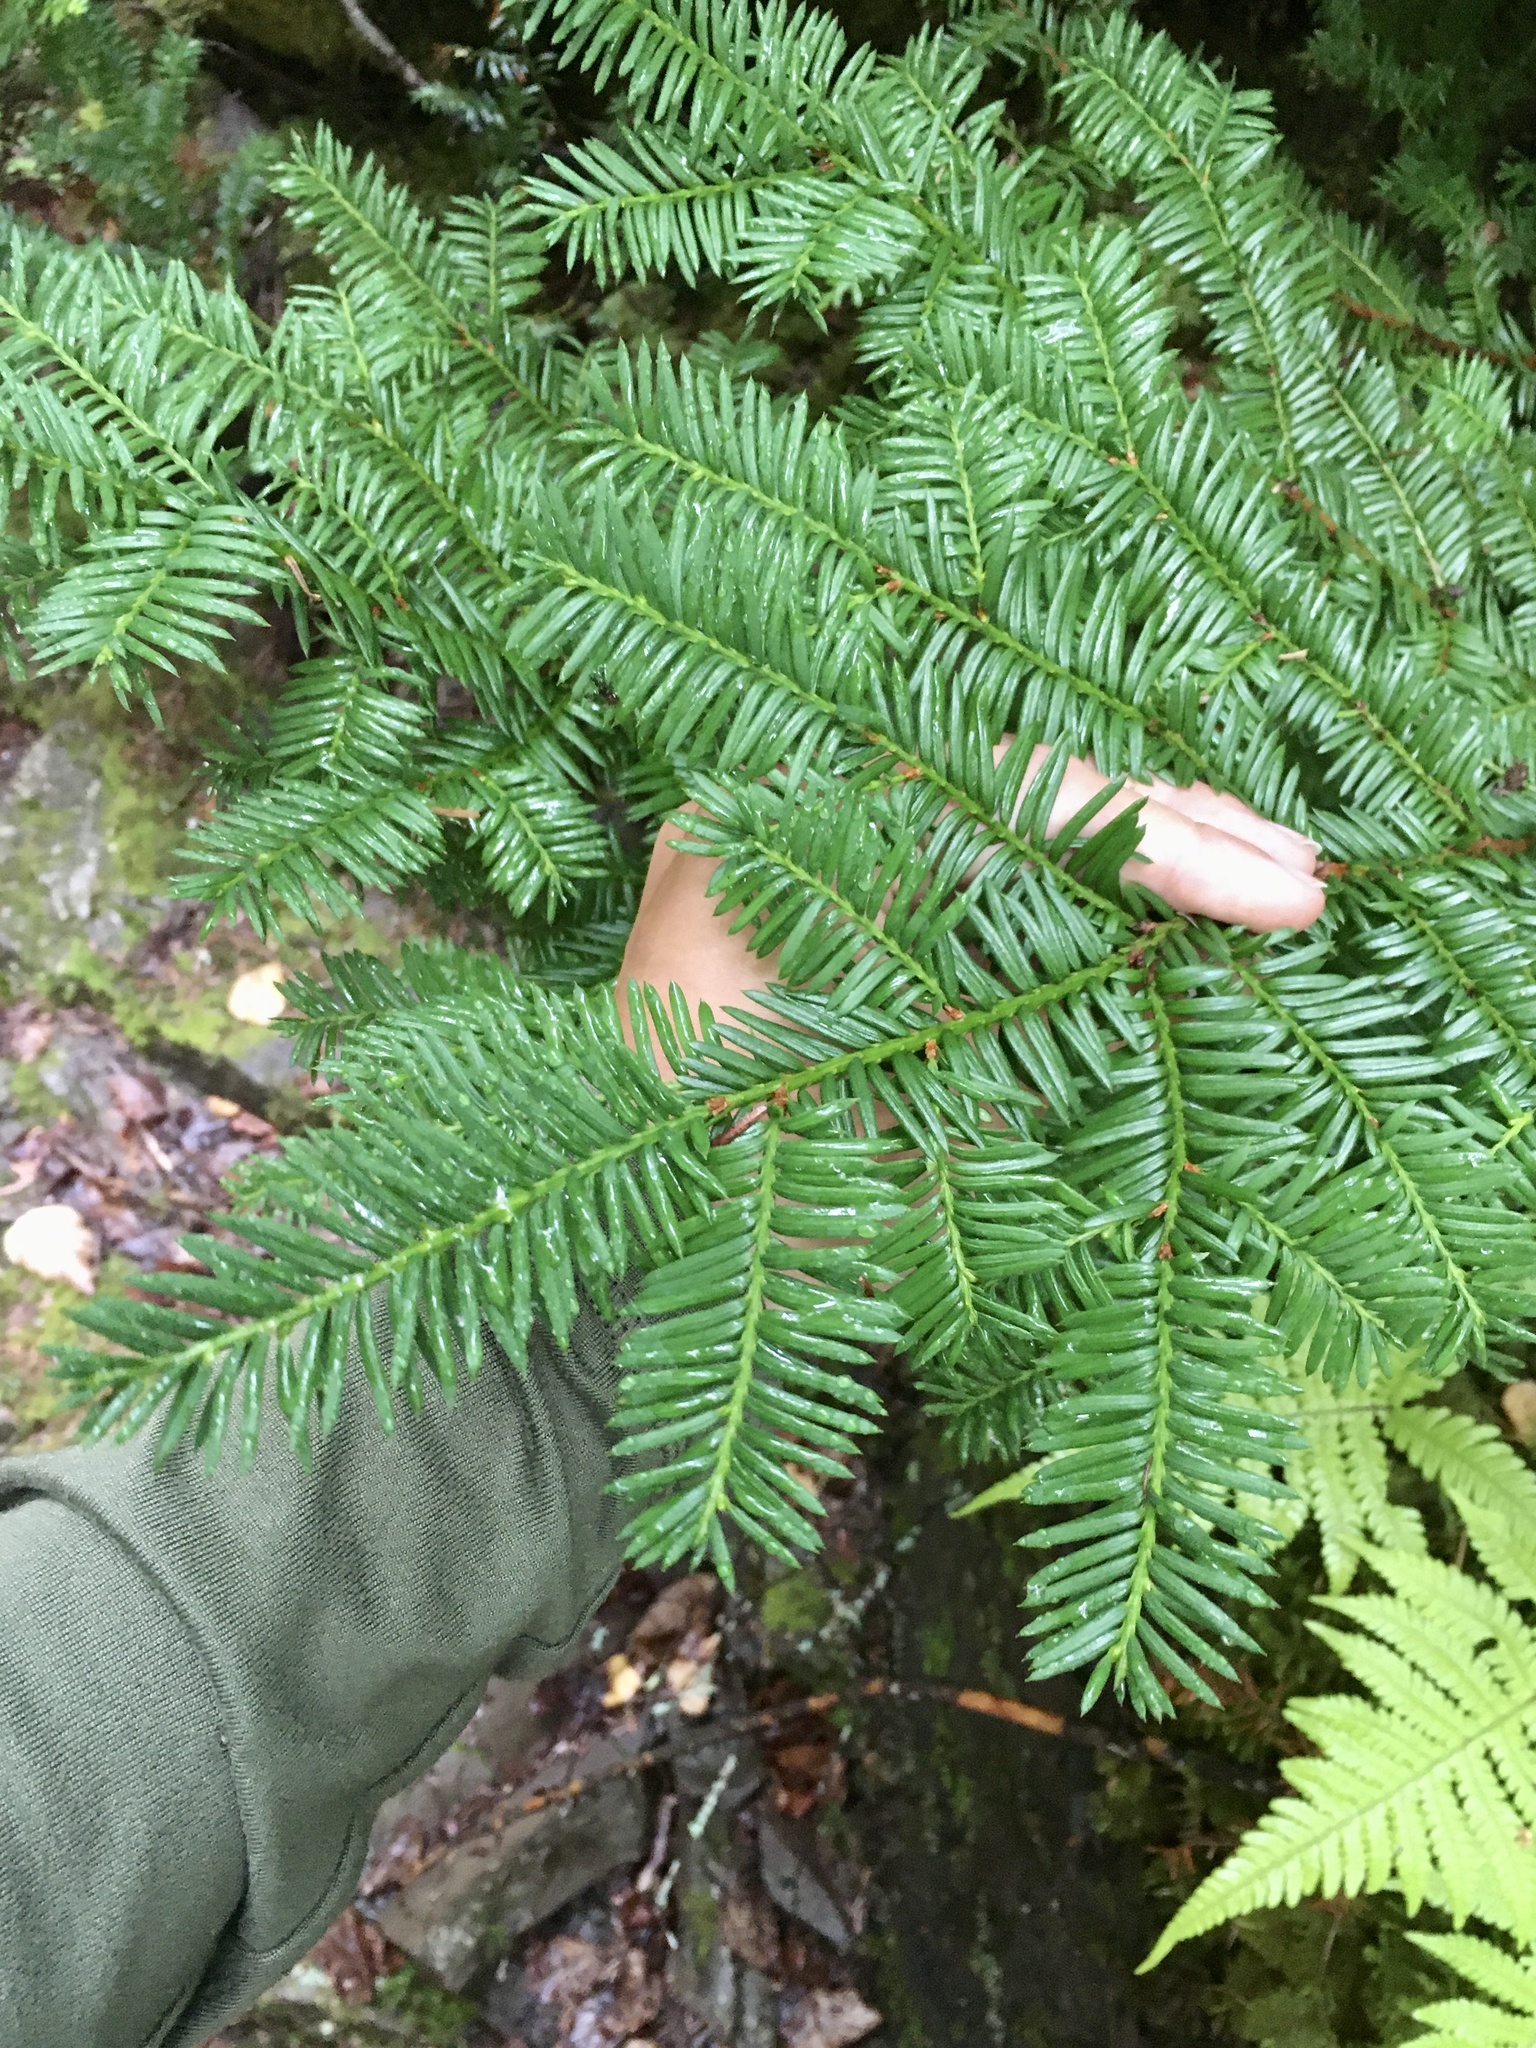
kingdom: Plantae
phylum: Tracheophyta
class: Pinopsida
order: Pinales
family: Taxaceae
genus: Taxus
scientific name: Taxus canadensis
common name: American yew
